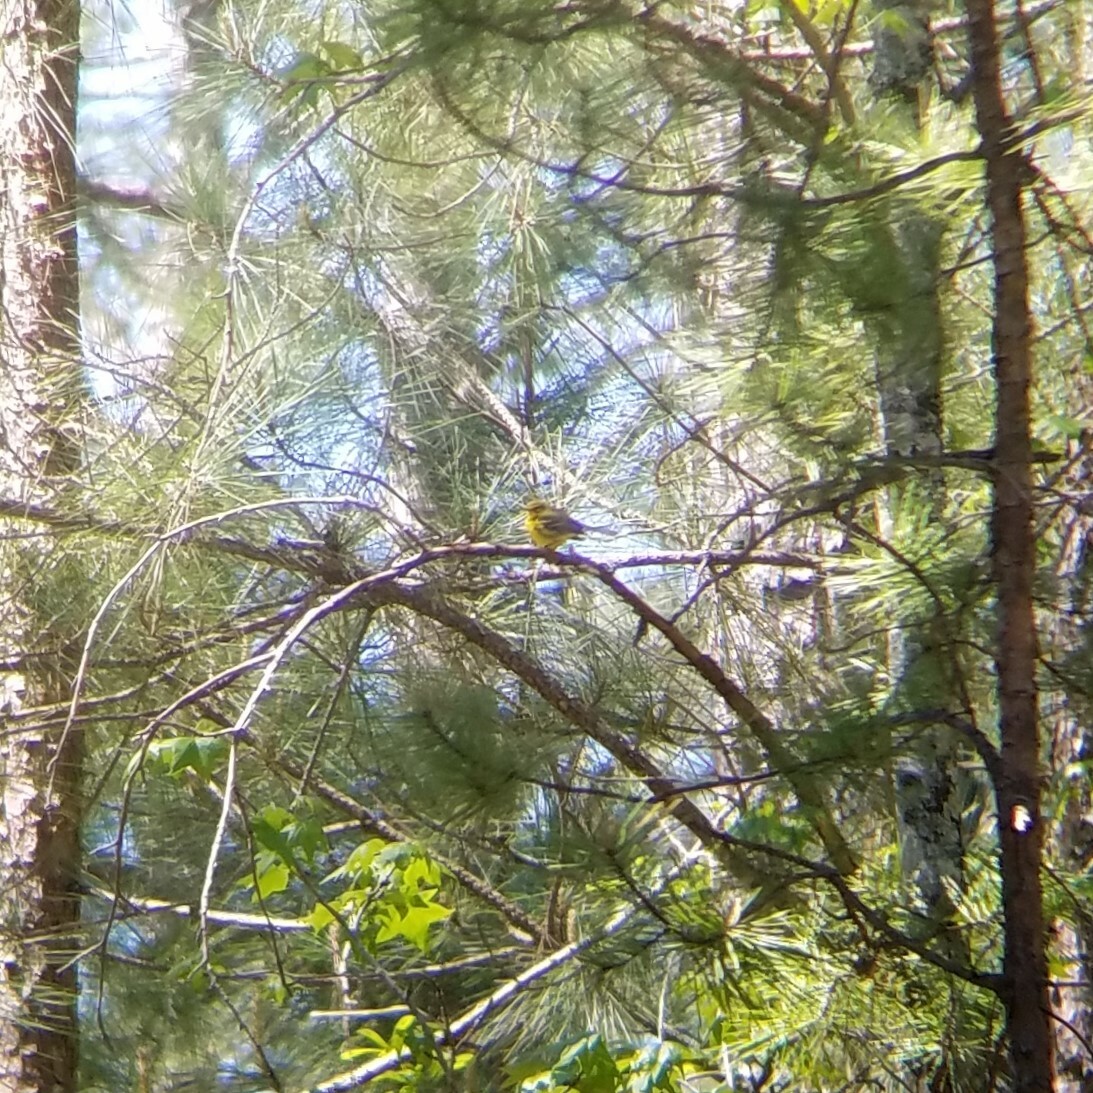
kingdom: Animalia
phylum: Chordata
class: Aves
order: Passeriformes
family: Parulidae
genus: Setophaga
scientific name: Setophaga discolor
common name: Prairie warbler
